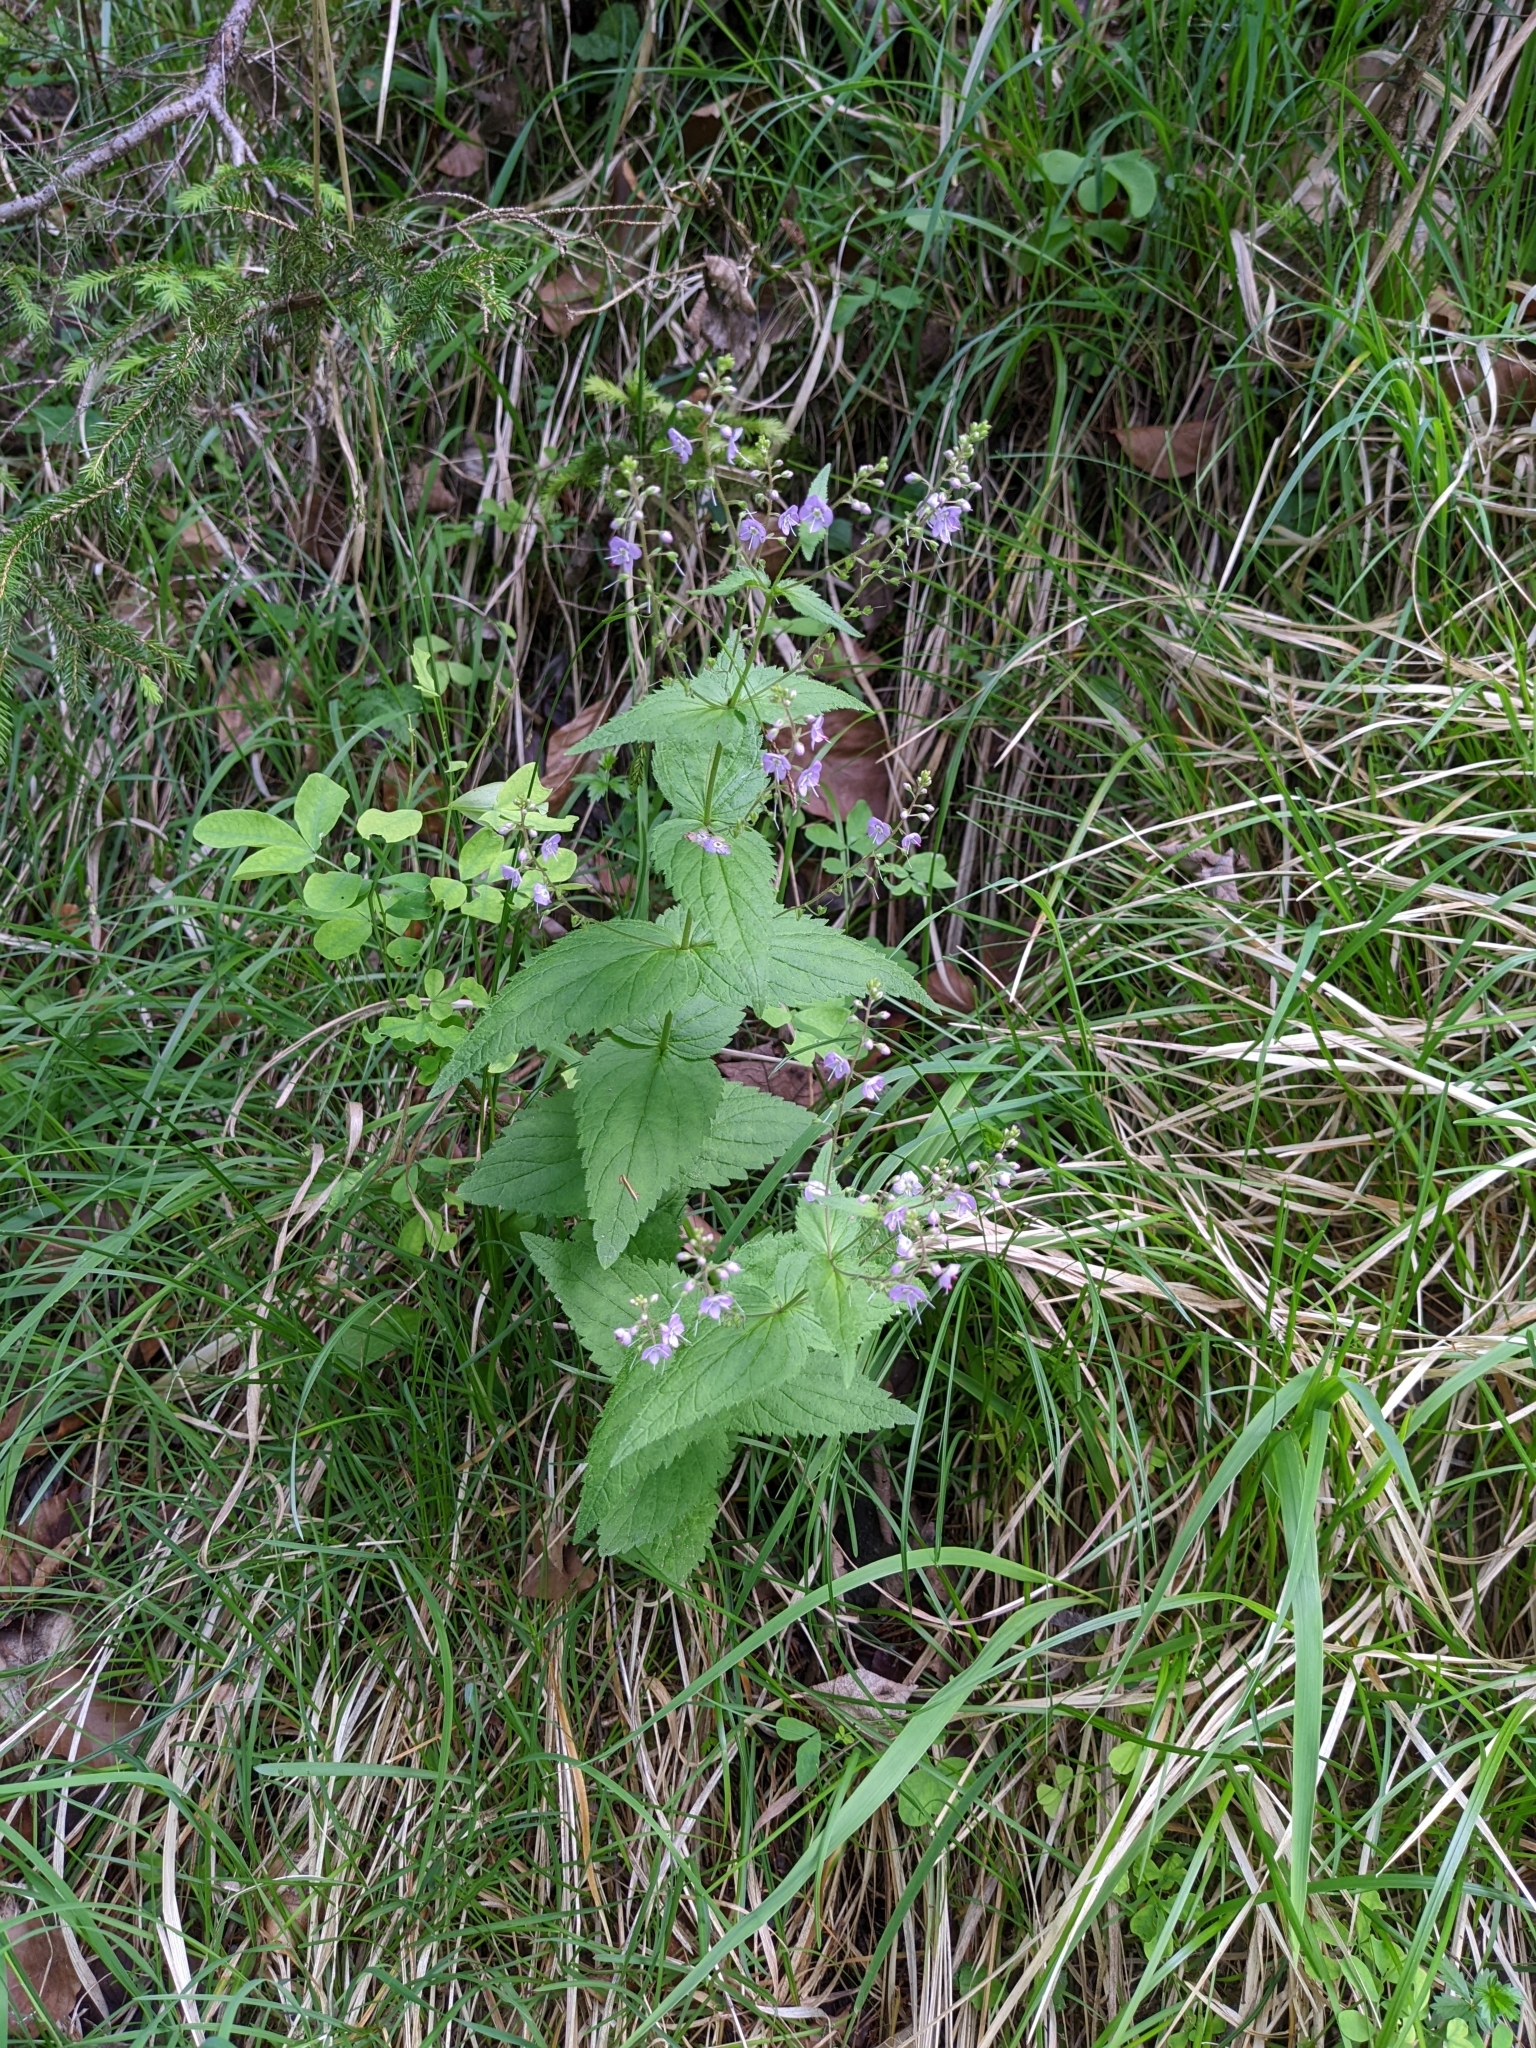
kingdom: Plantae
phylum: Tracheophyta
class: Magnoliopsida
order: Lamiales
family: Plantaginaceae
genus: Veronica
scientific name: Veronica urticifolia
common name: Nettle-leaf speedwell
